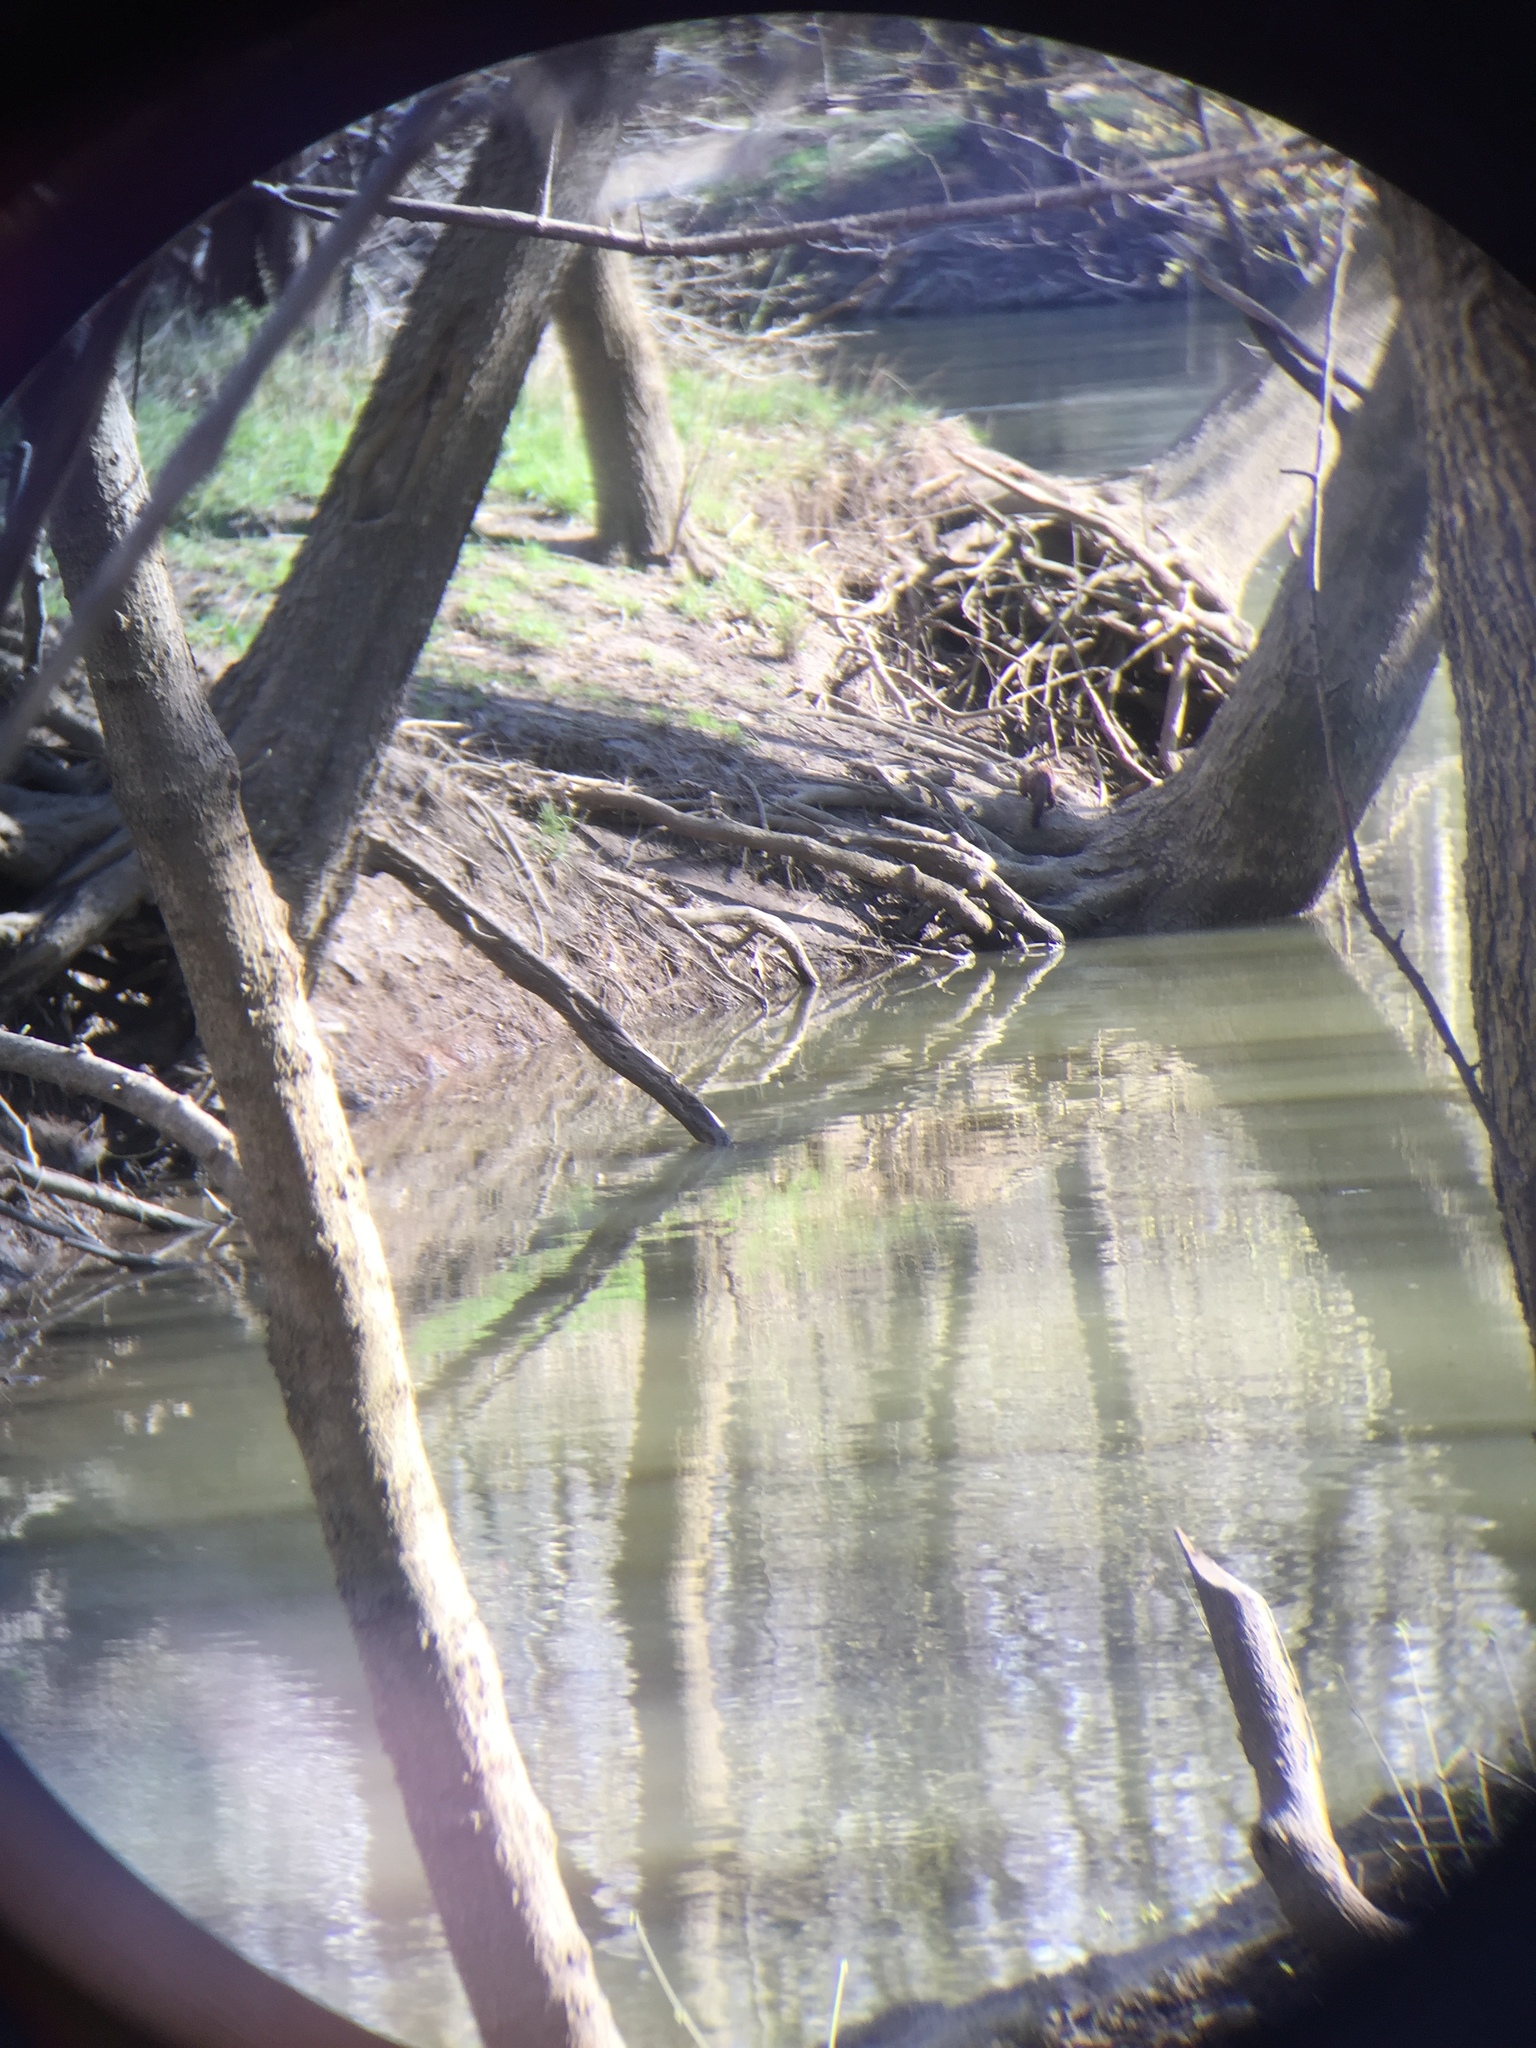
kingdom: Animalia
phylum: Chordata
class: Mammalia
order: Carnivora
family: Mustelidae
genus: Mustela
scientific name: Mustela
